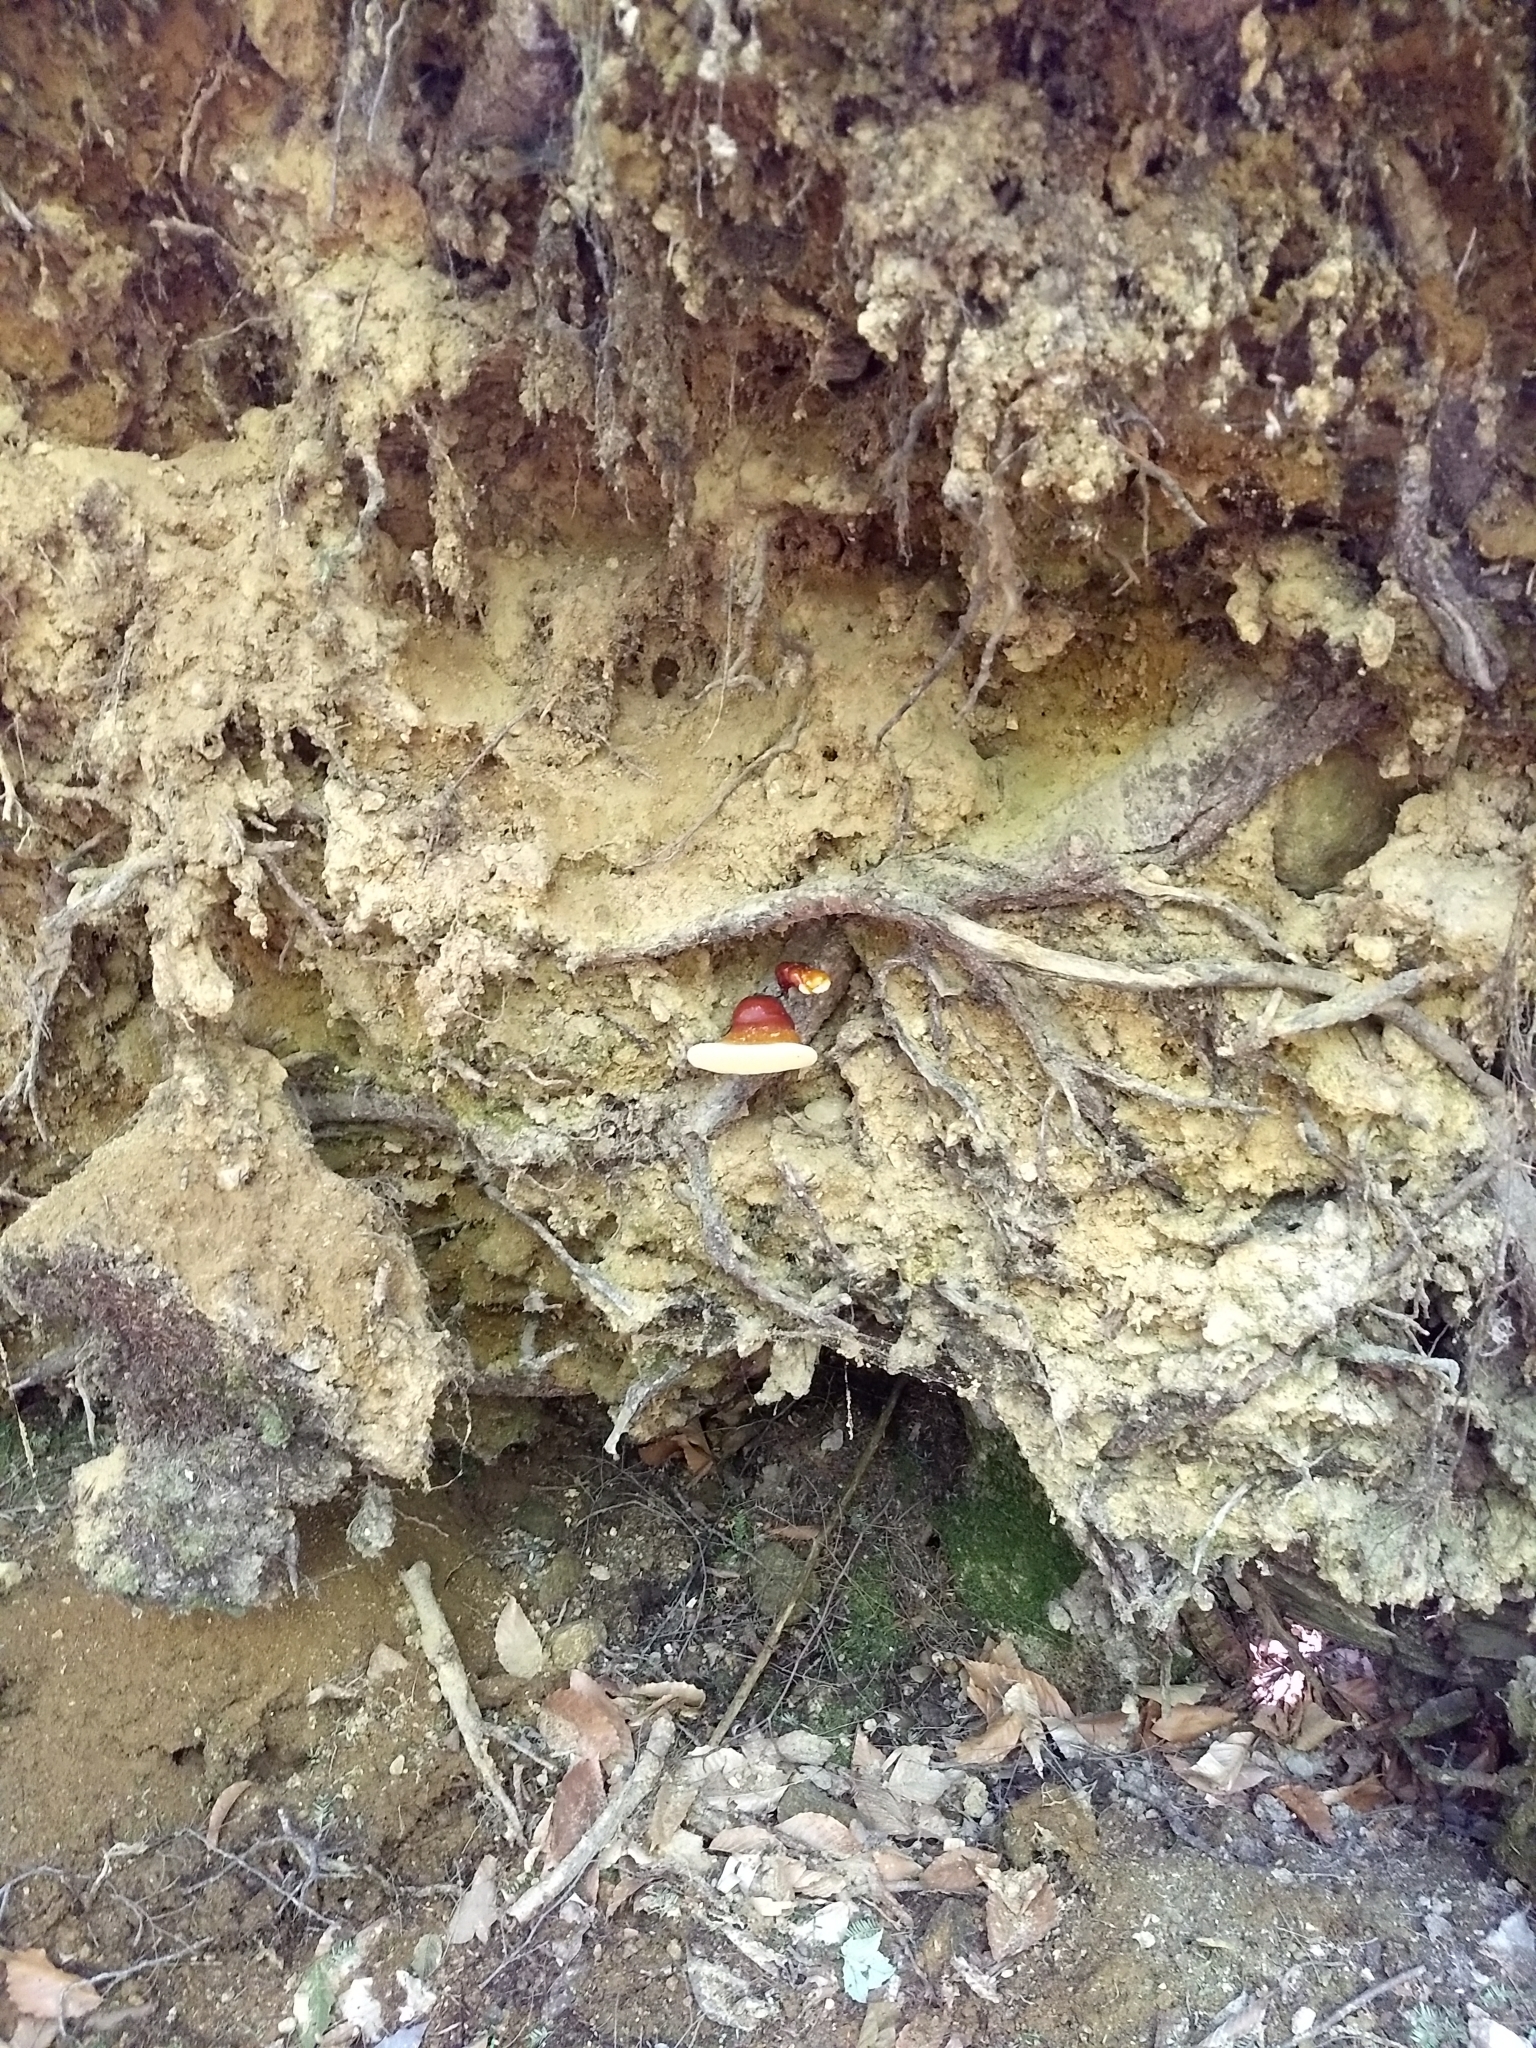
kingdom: Fungi
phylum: Basidiomycota
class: Agaricomycetes
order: Polyporales
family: Polyporaceae
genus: Ganoderma
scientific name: Ganoderma tsugae
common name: Hemlock varnish shelf
